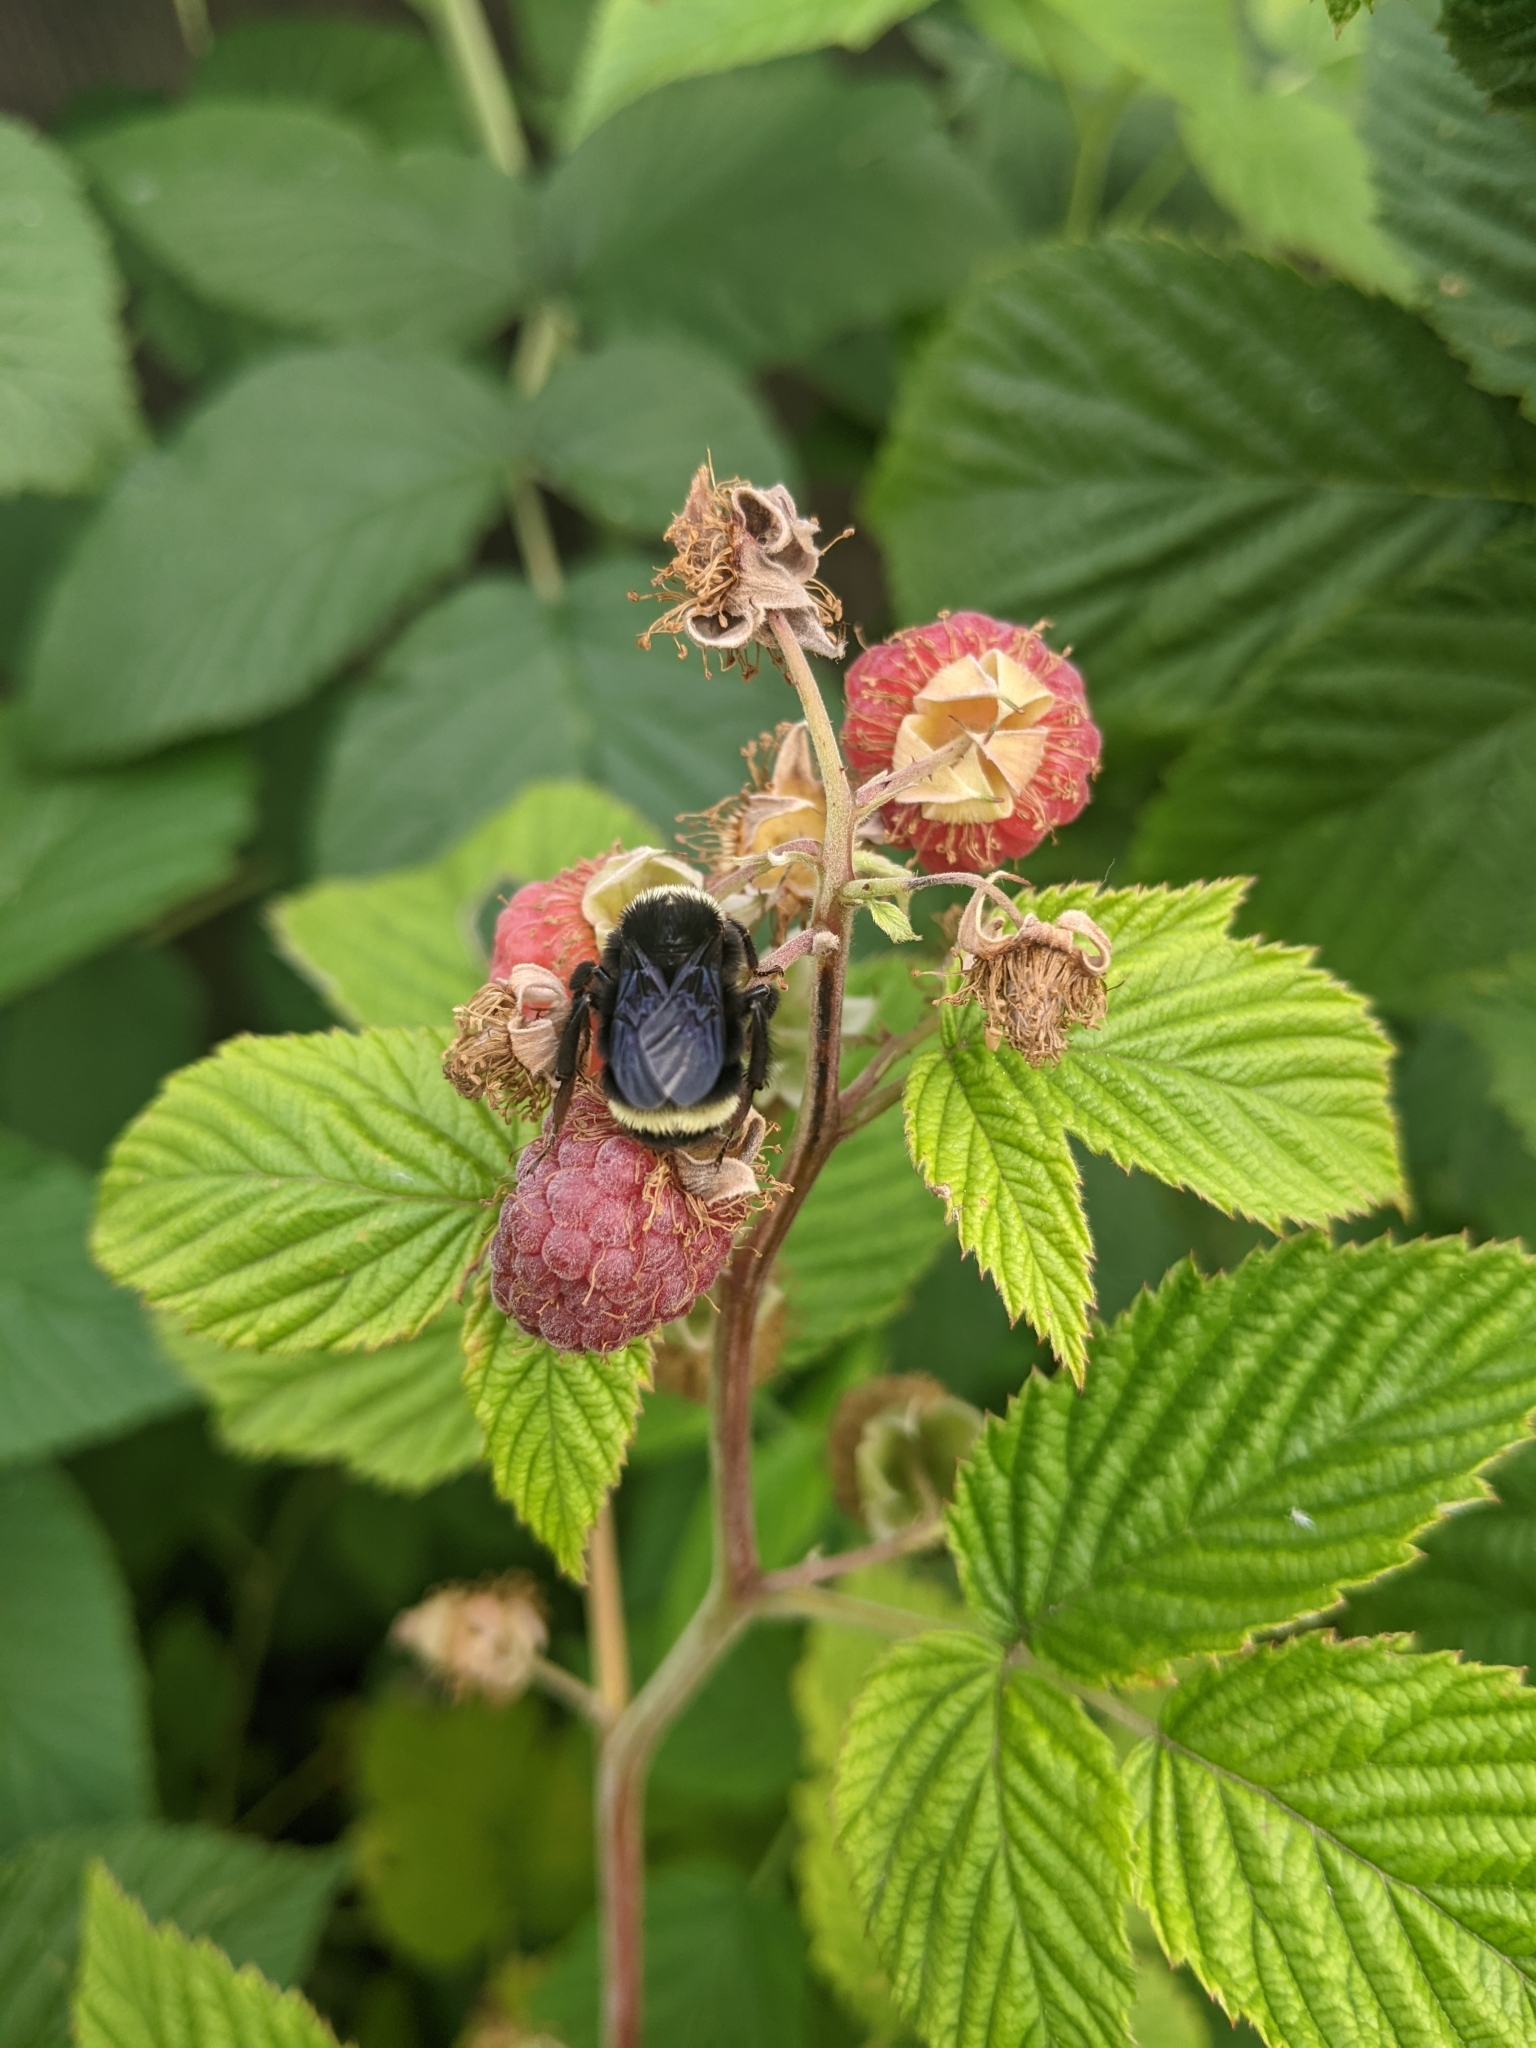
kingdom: Animalia
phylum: Arthropoda
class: Insecta
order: Hymenoptera
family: Apidae
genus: Bombus
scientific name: Bombus vosnesenskii
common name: Vosnesensky bumble bee
